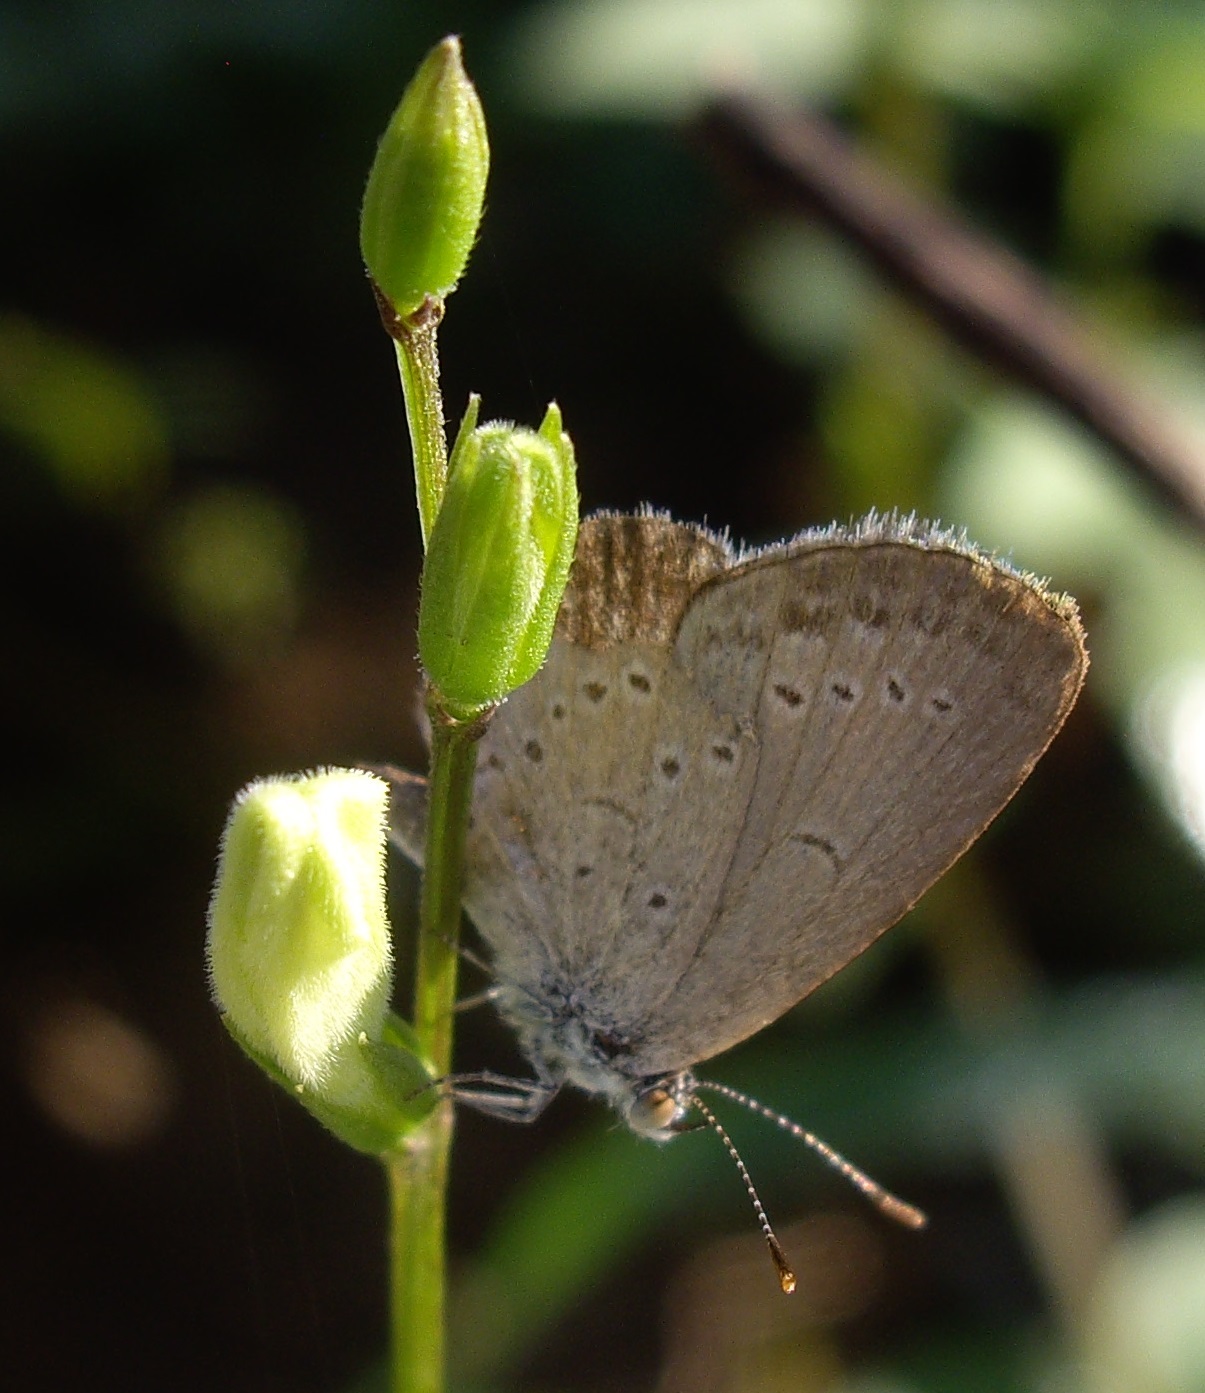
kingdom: Animalia
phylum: Arthropoda
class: Insecta
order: Lepidoptera
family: Lycaenidae
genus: Zizina
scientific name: Zizina otis
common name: Lesser grass blue
